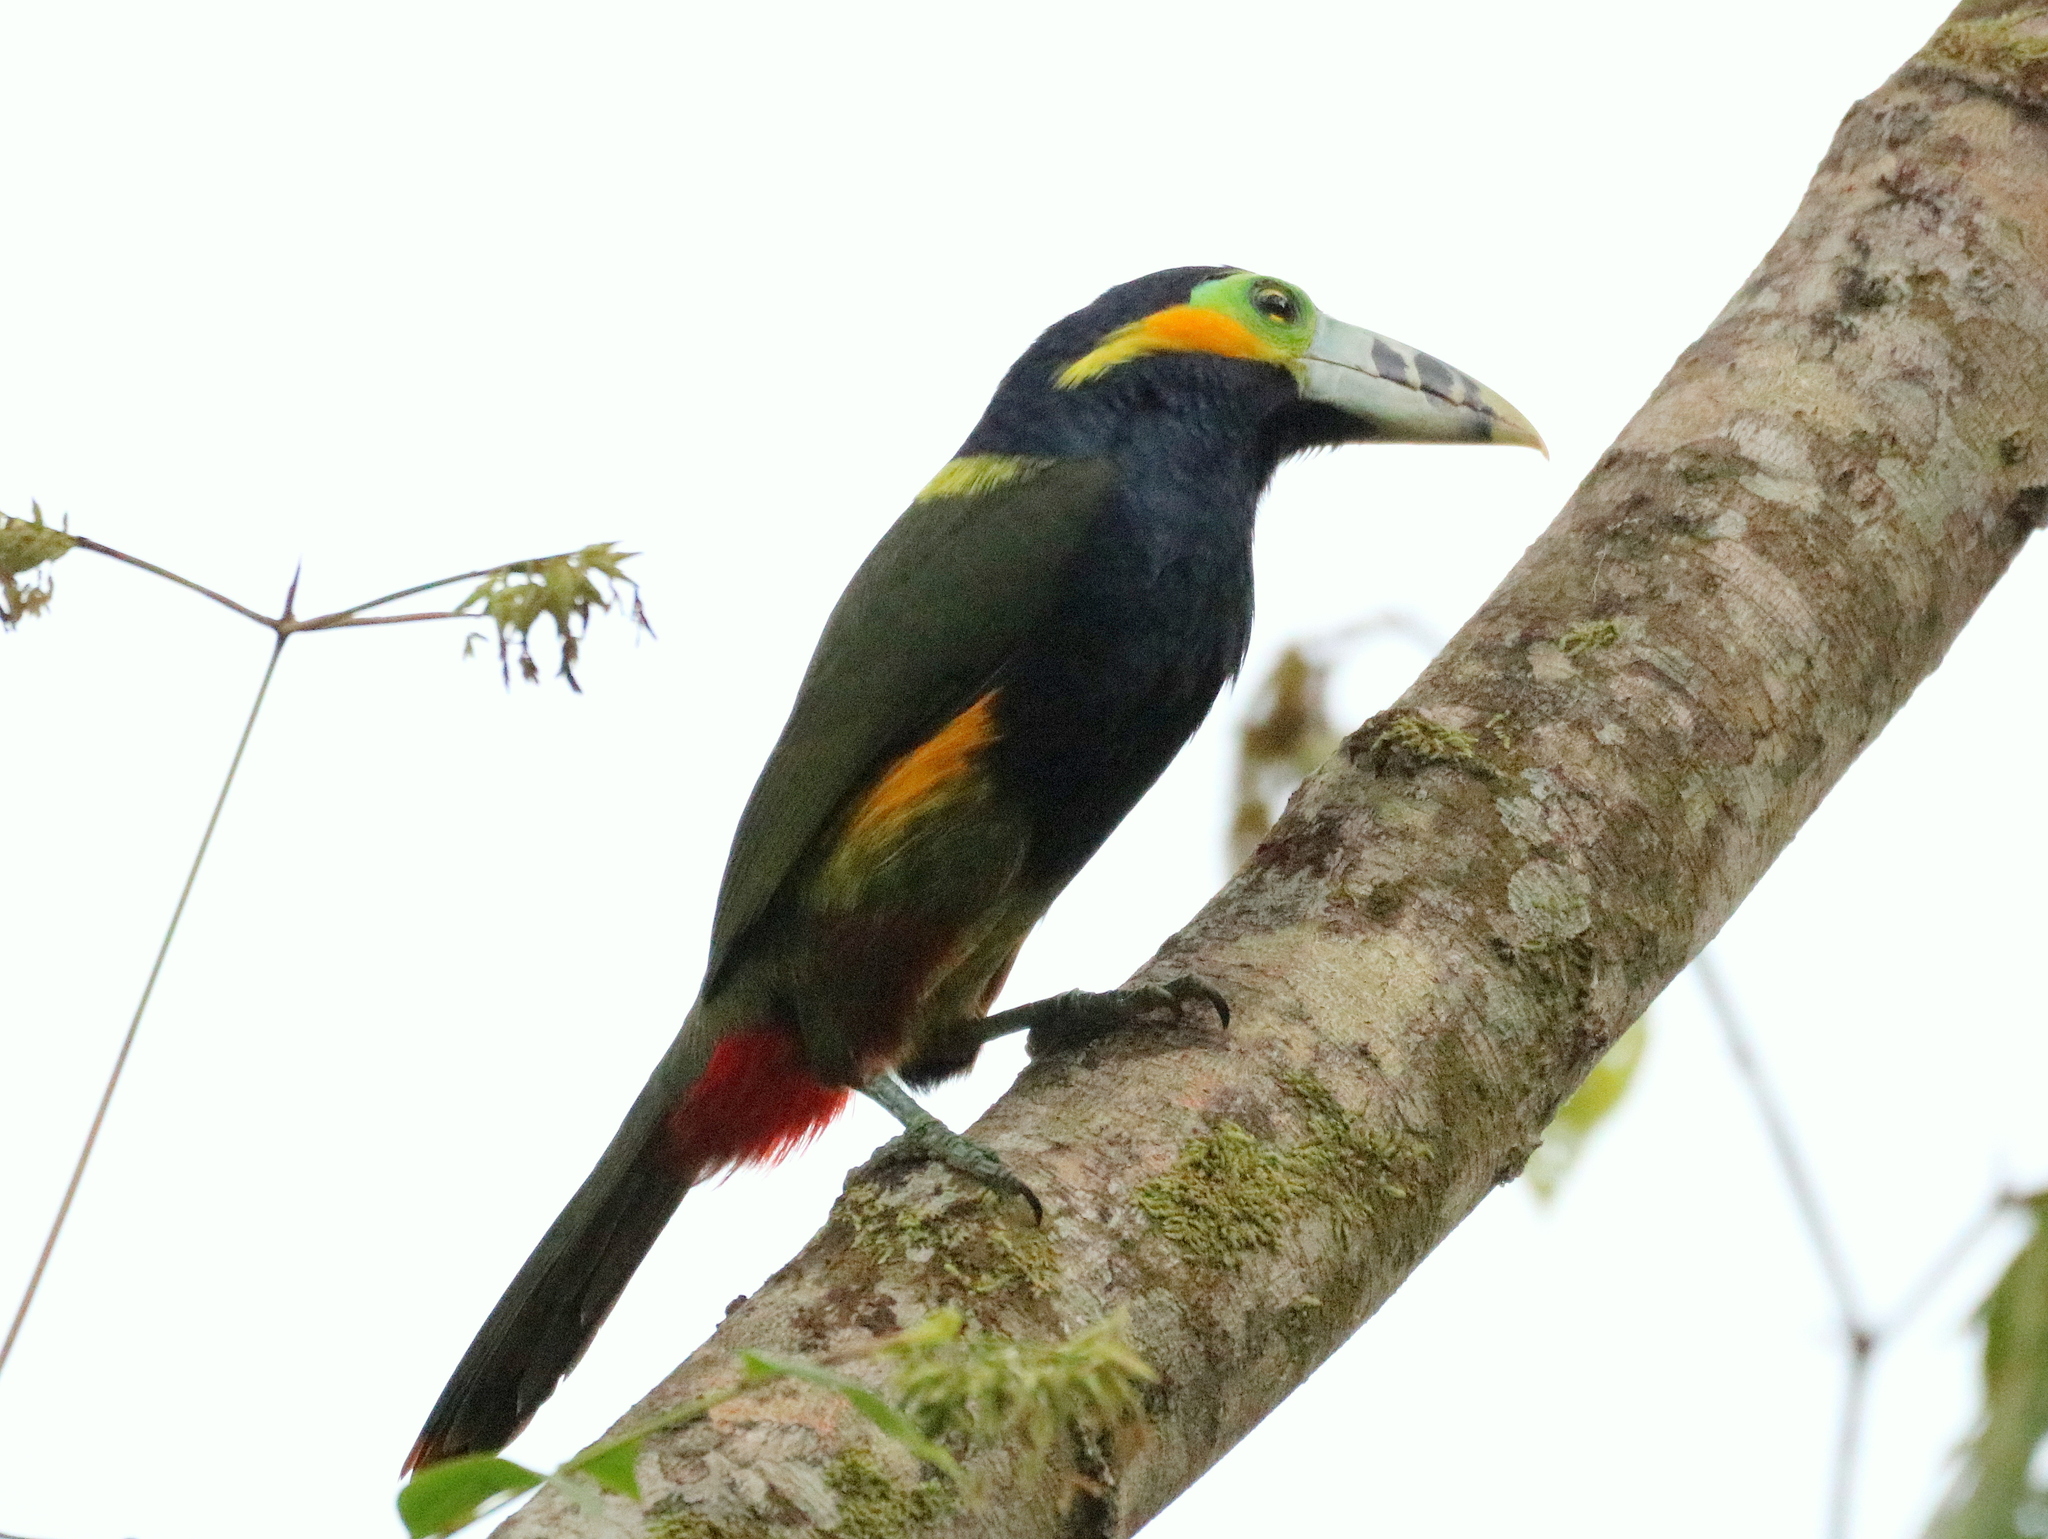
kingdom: Animalia
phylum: Chordata
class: Aves
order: Piciformes
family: Ramphastidae
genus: Selenidera
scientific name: Selenidera maculirostris
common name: Spot-billed toucanet
